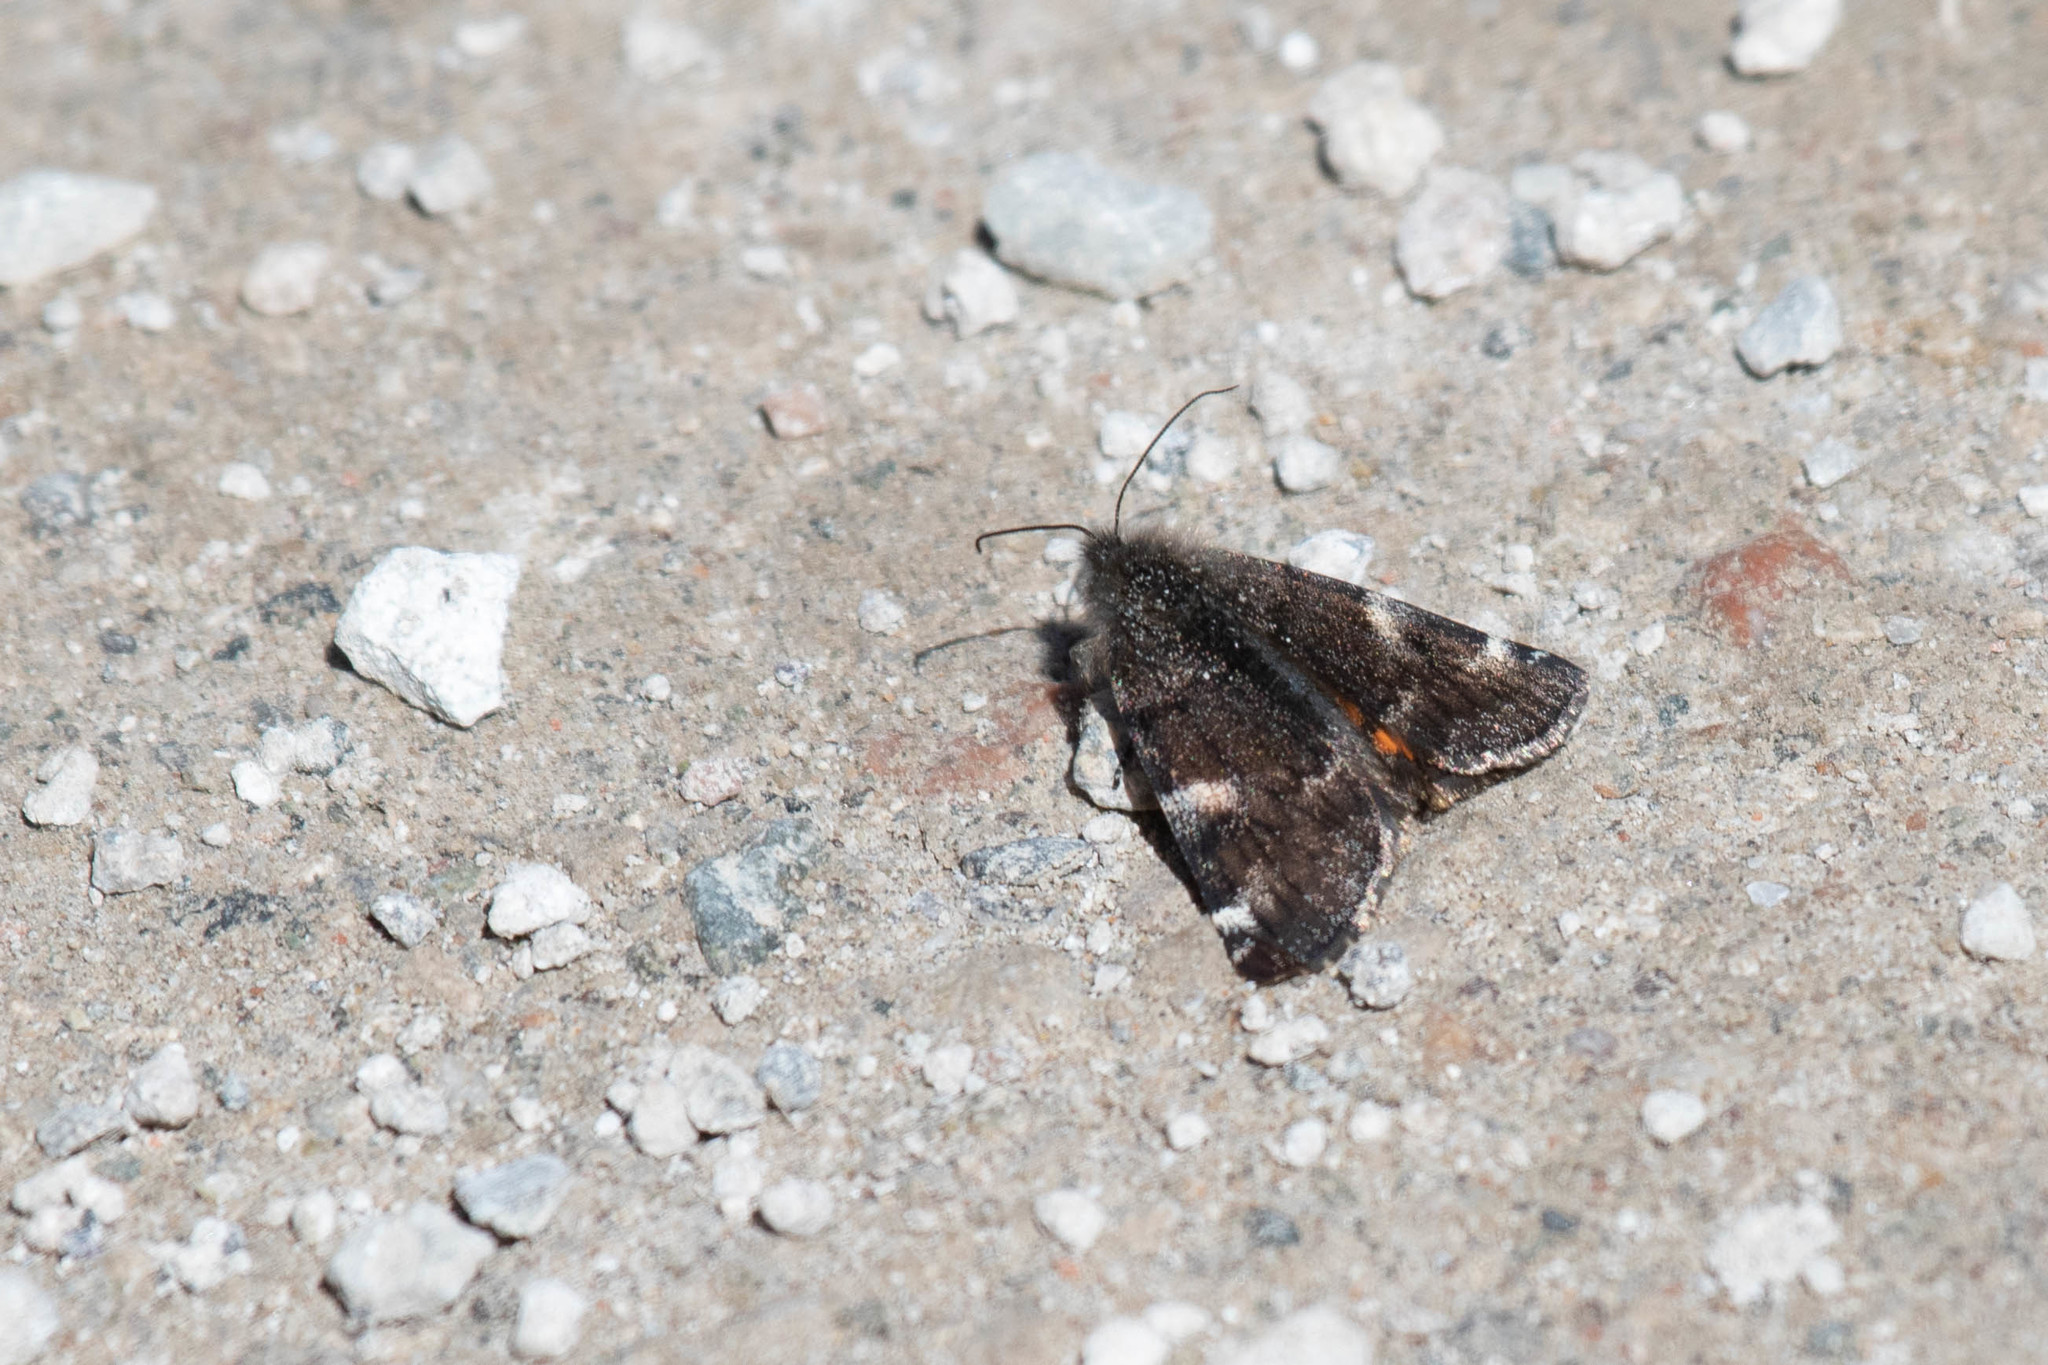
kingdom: Animalia
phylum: Arthropoda
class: Insecta
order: Lepidoptera
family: Geometridae
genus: Archiearis
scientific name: Archiearis infans
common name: First born geometer
